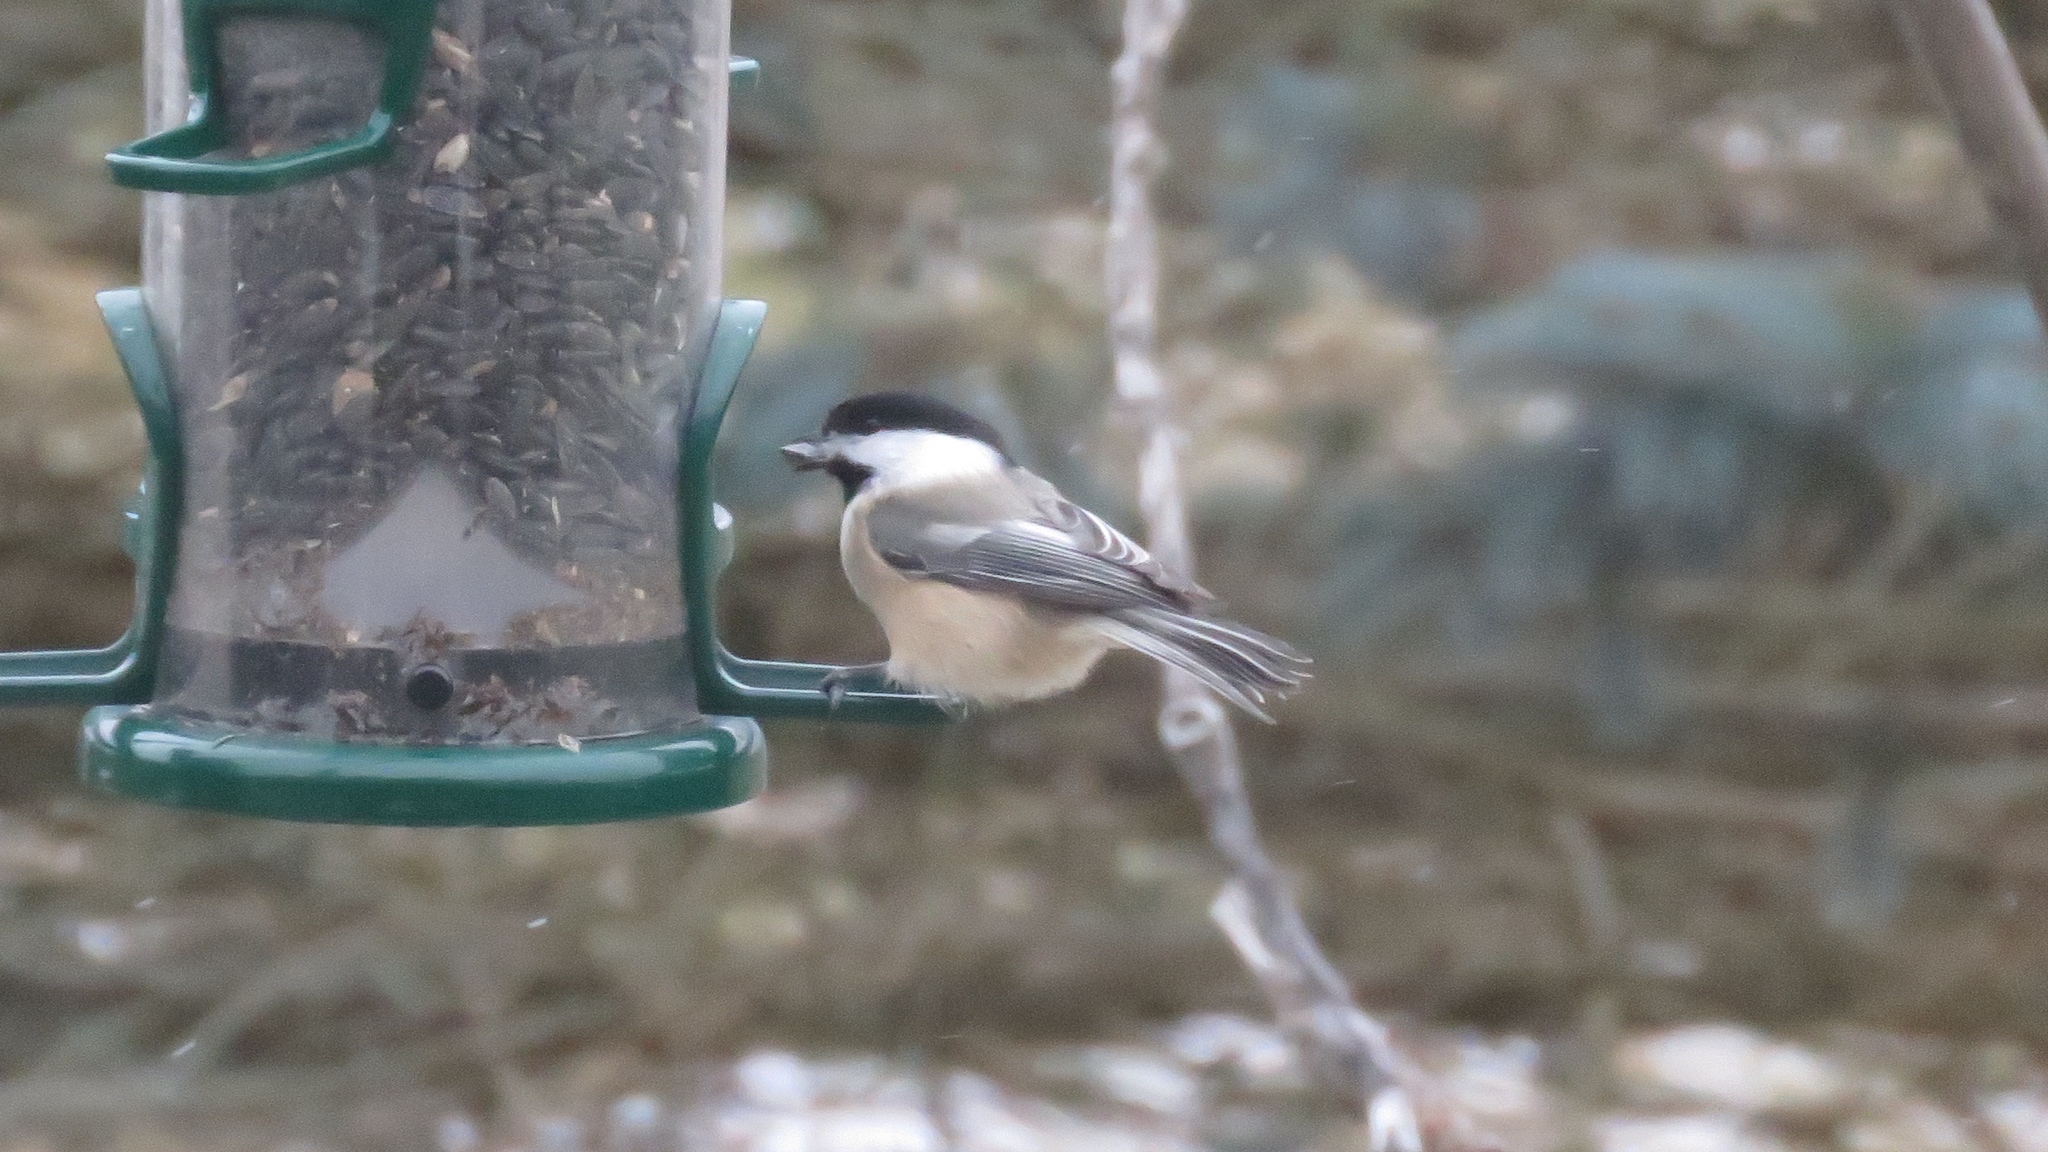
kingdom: Animalia
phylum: Chordata
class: Aves
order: Passeriformes
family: Paridae
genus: Poecile
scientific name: Poecile atricapillus
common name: Black-capped chickadee
